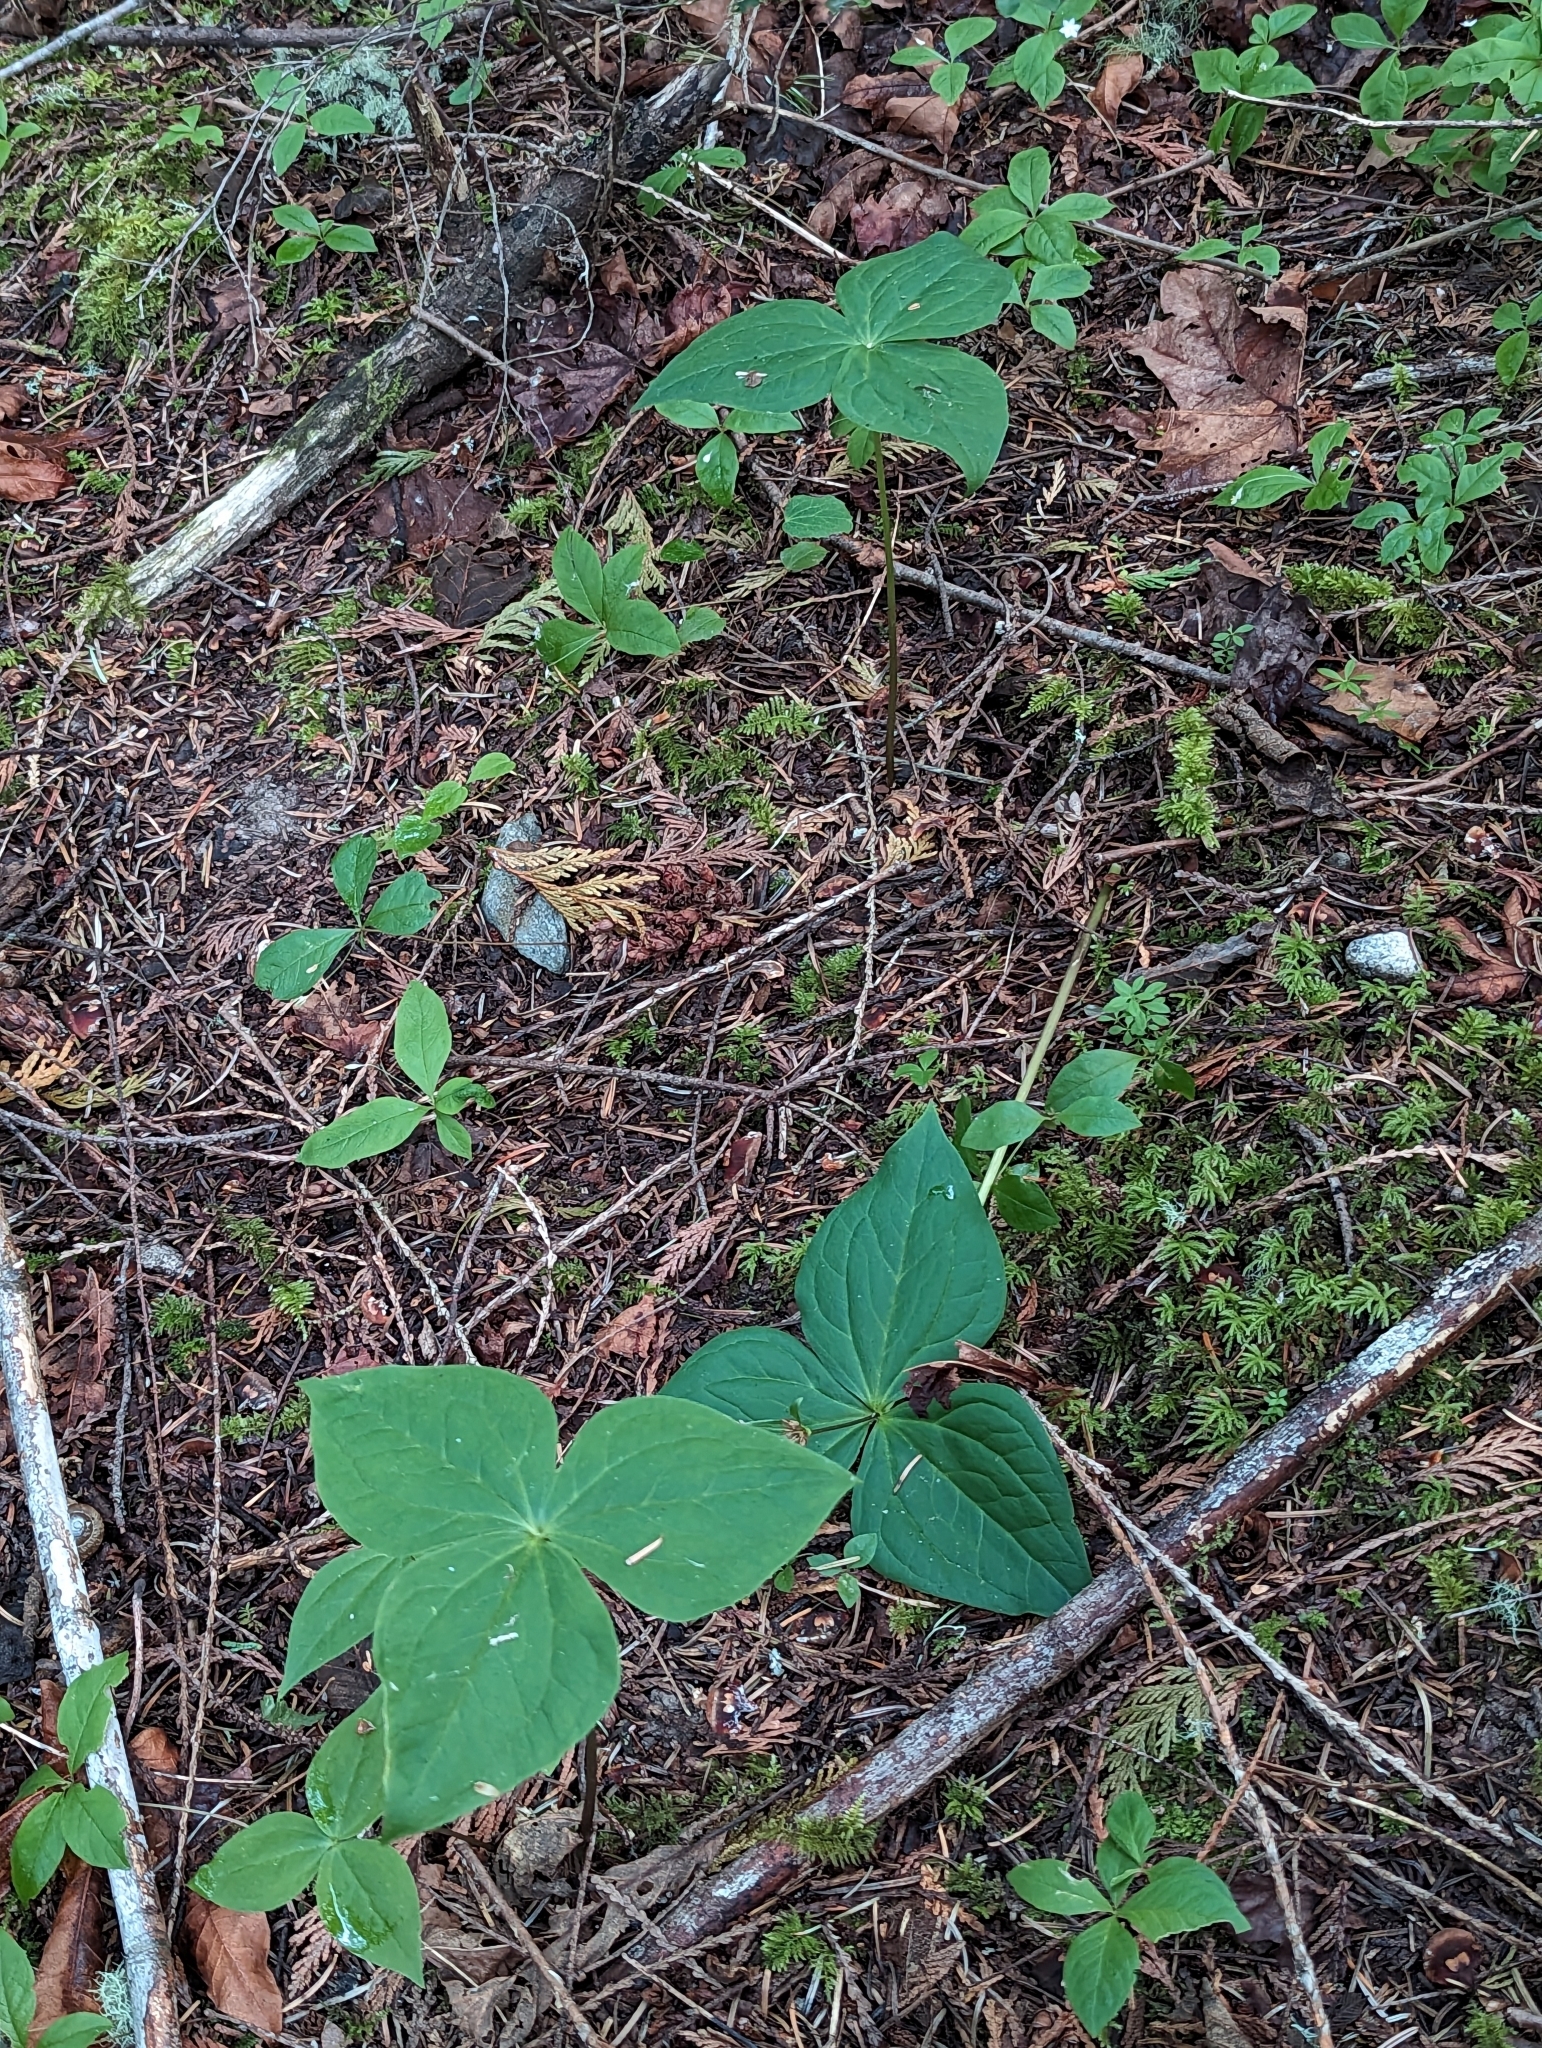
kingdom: Plantae
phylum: Tracheophyta
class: Liliopsida
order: Liliales
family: Melanthiaceae
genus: Trillium
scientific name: Trillium ovatum
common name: Pacific trillium
